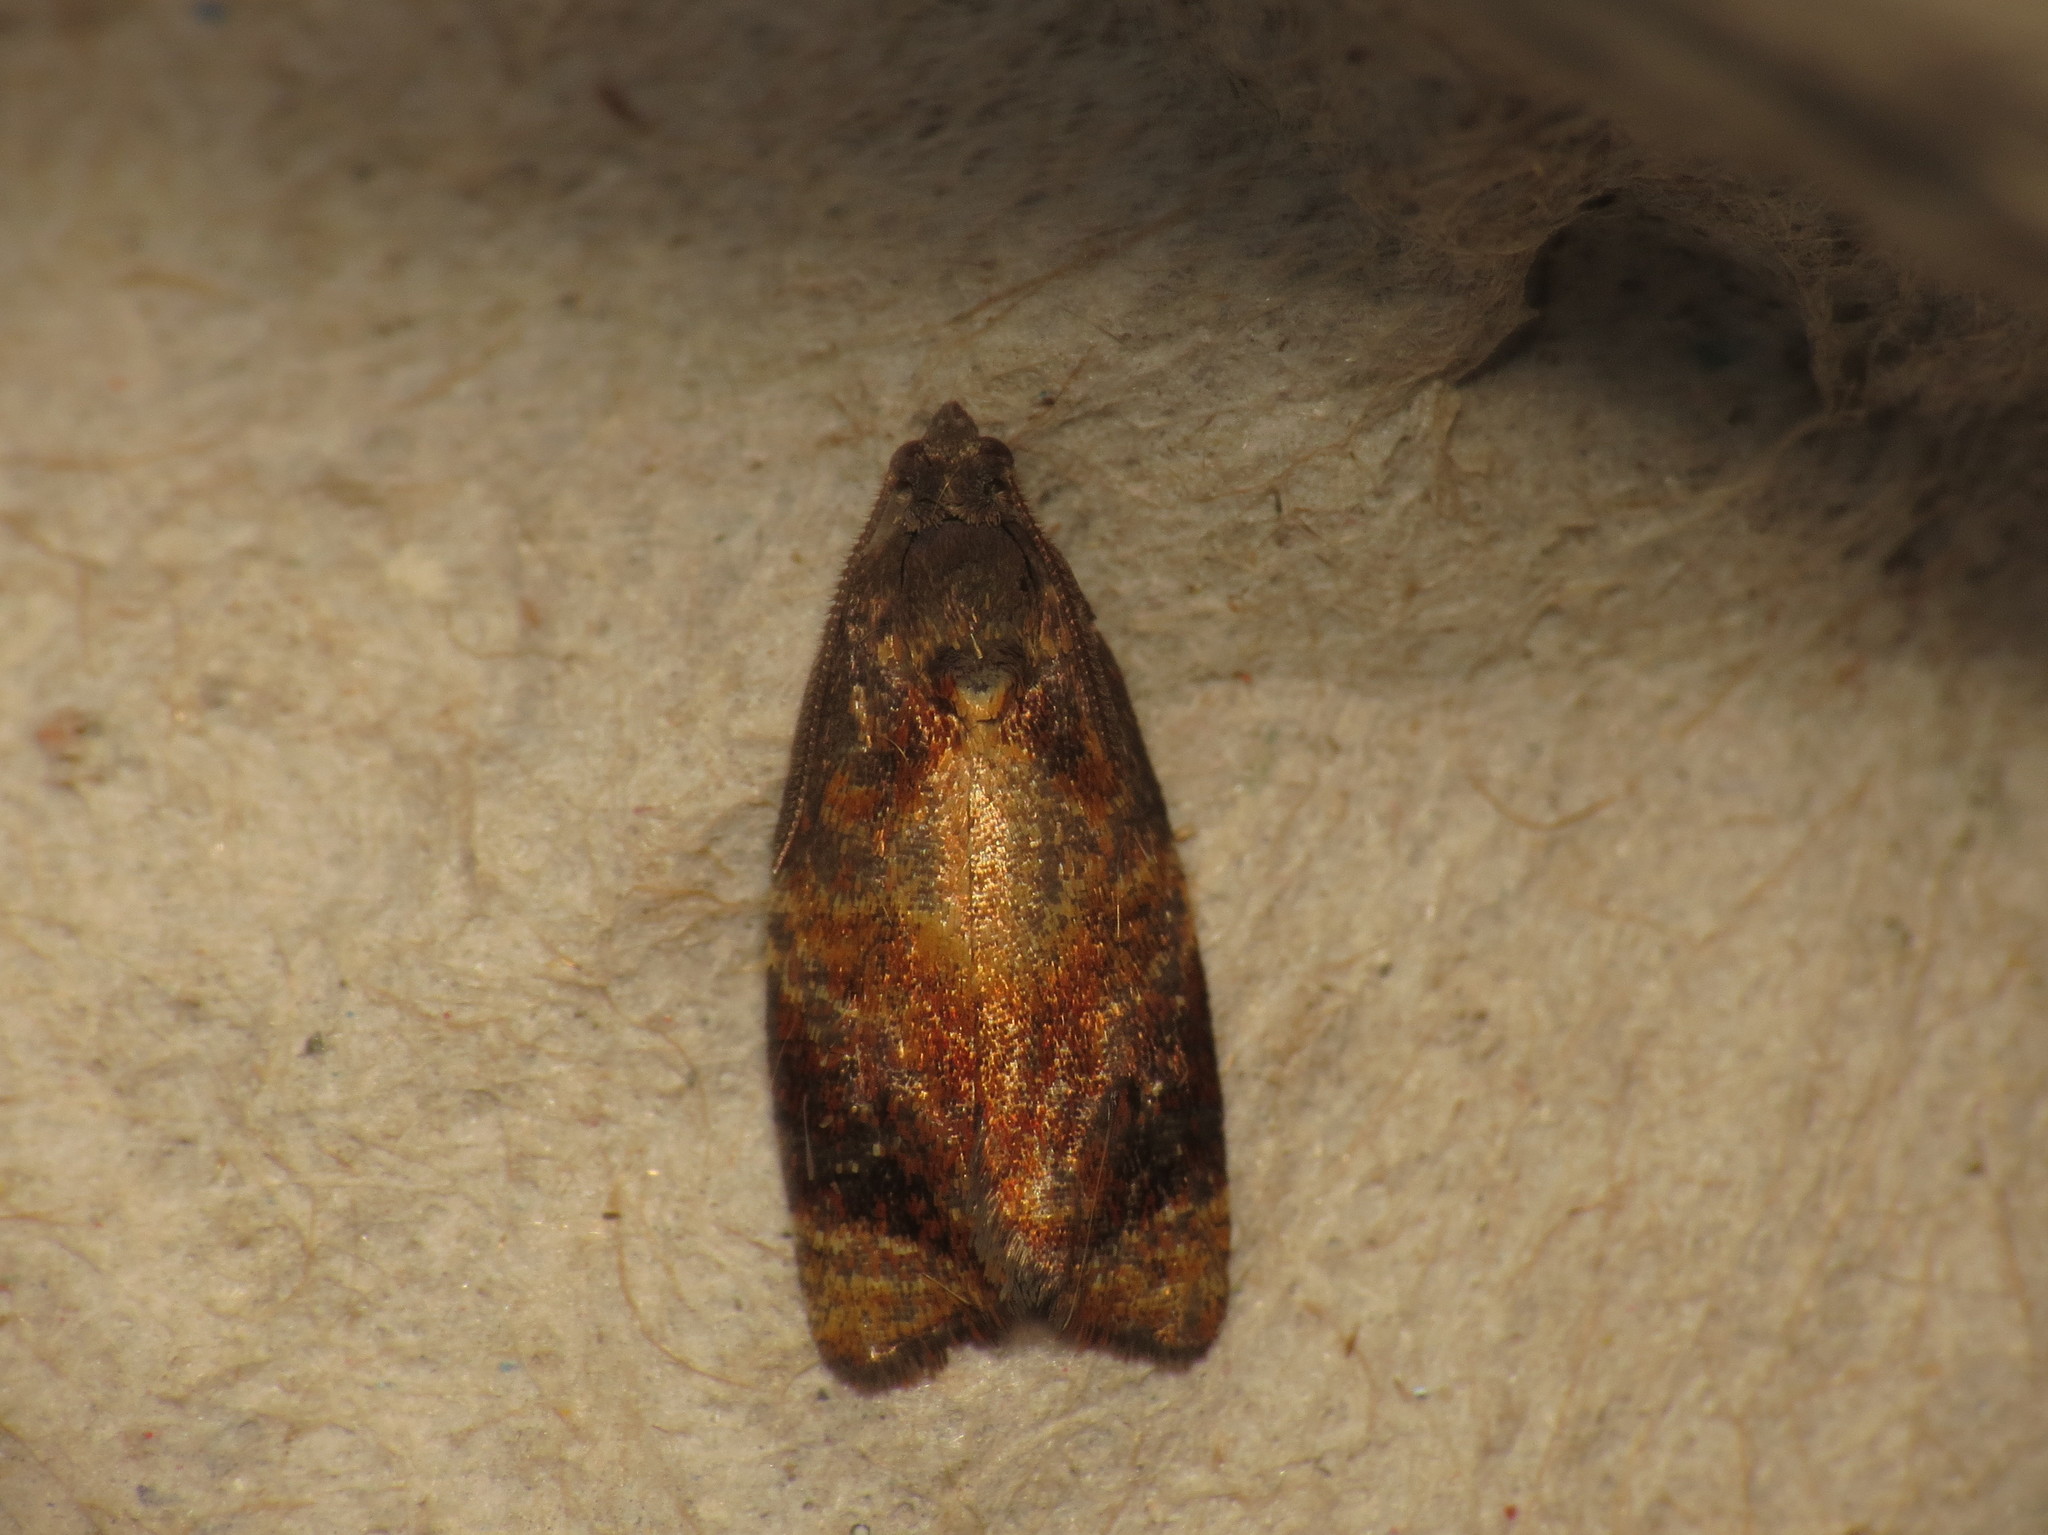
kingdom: Animalia
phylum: Arthropoda
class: Insecta
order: Lepidoptera
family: Tortricidae
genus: Ditula
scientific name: Ditula angustiorana
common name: Red-barred tortrix
